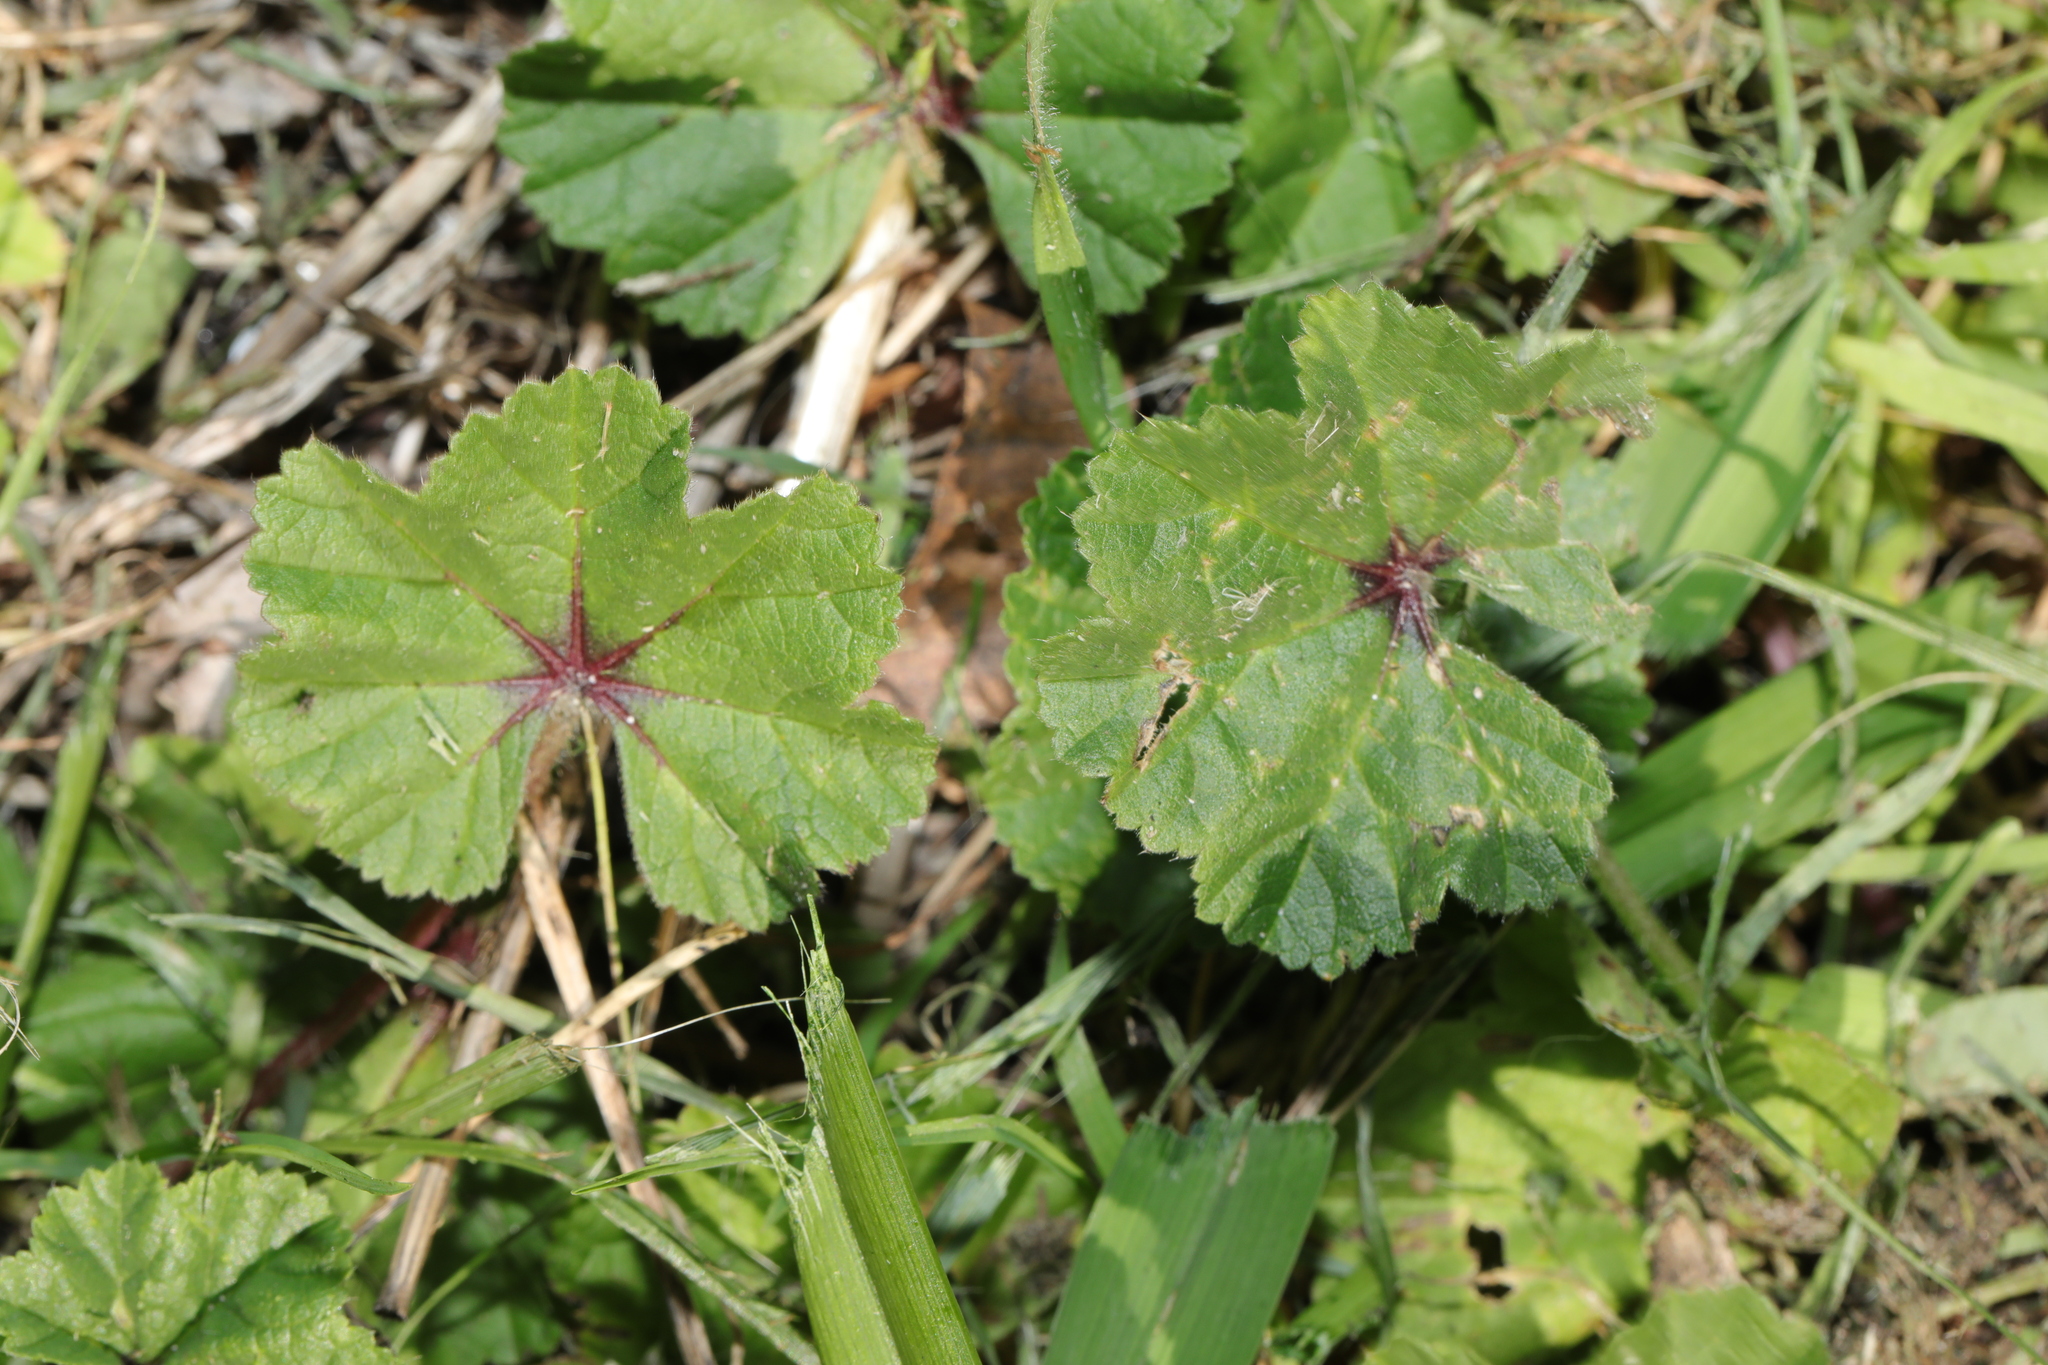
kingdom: Plantae
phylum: Tracheophyta
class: Magnoliopsida
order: Malvales
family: Malvaceae
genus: Malva
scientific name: Malva sylvestris
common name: Common mallow
